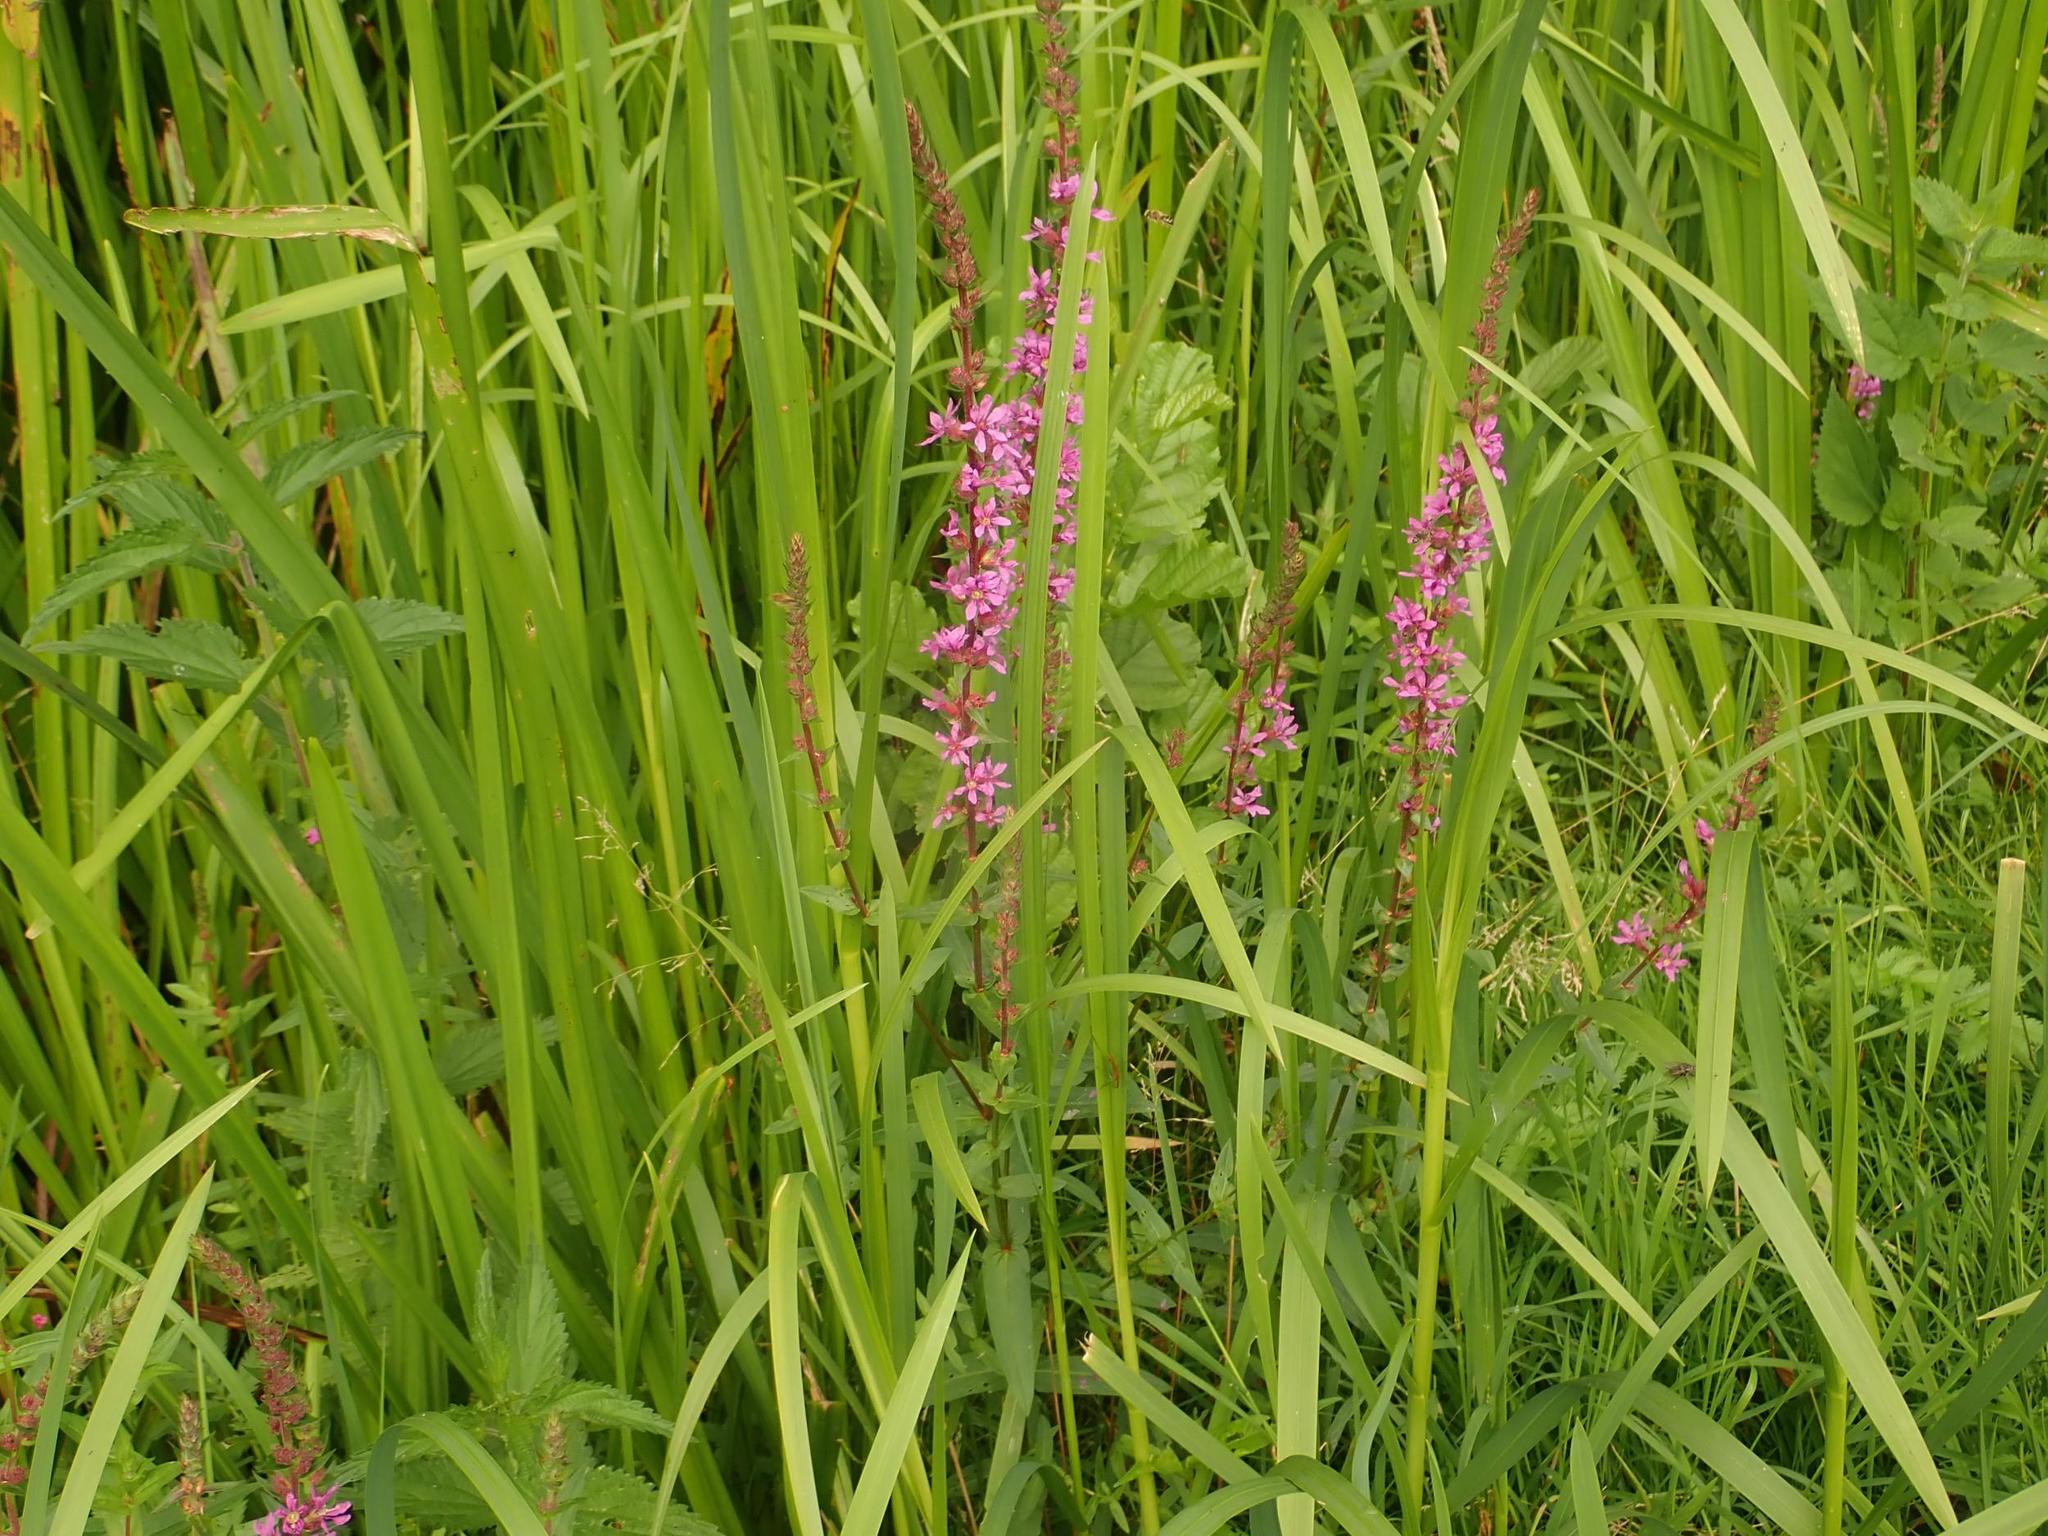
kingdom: Plantae
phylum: Tracheophyta
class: Magnoliopsida
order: Myrtales
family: Lythraceae
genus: Lythrum
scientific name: Lythrum salicaria
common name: Purple loosestrife
